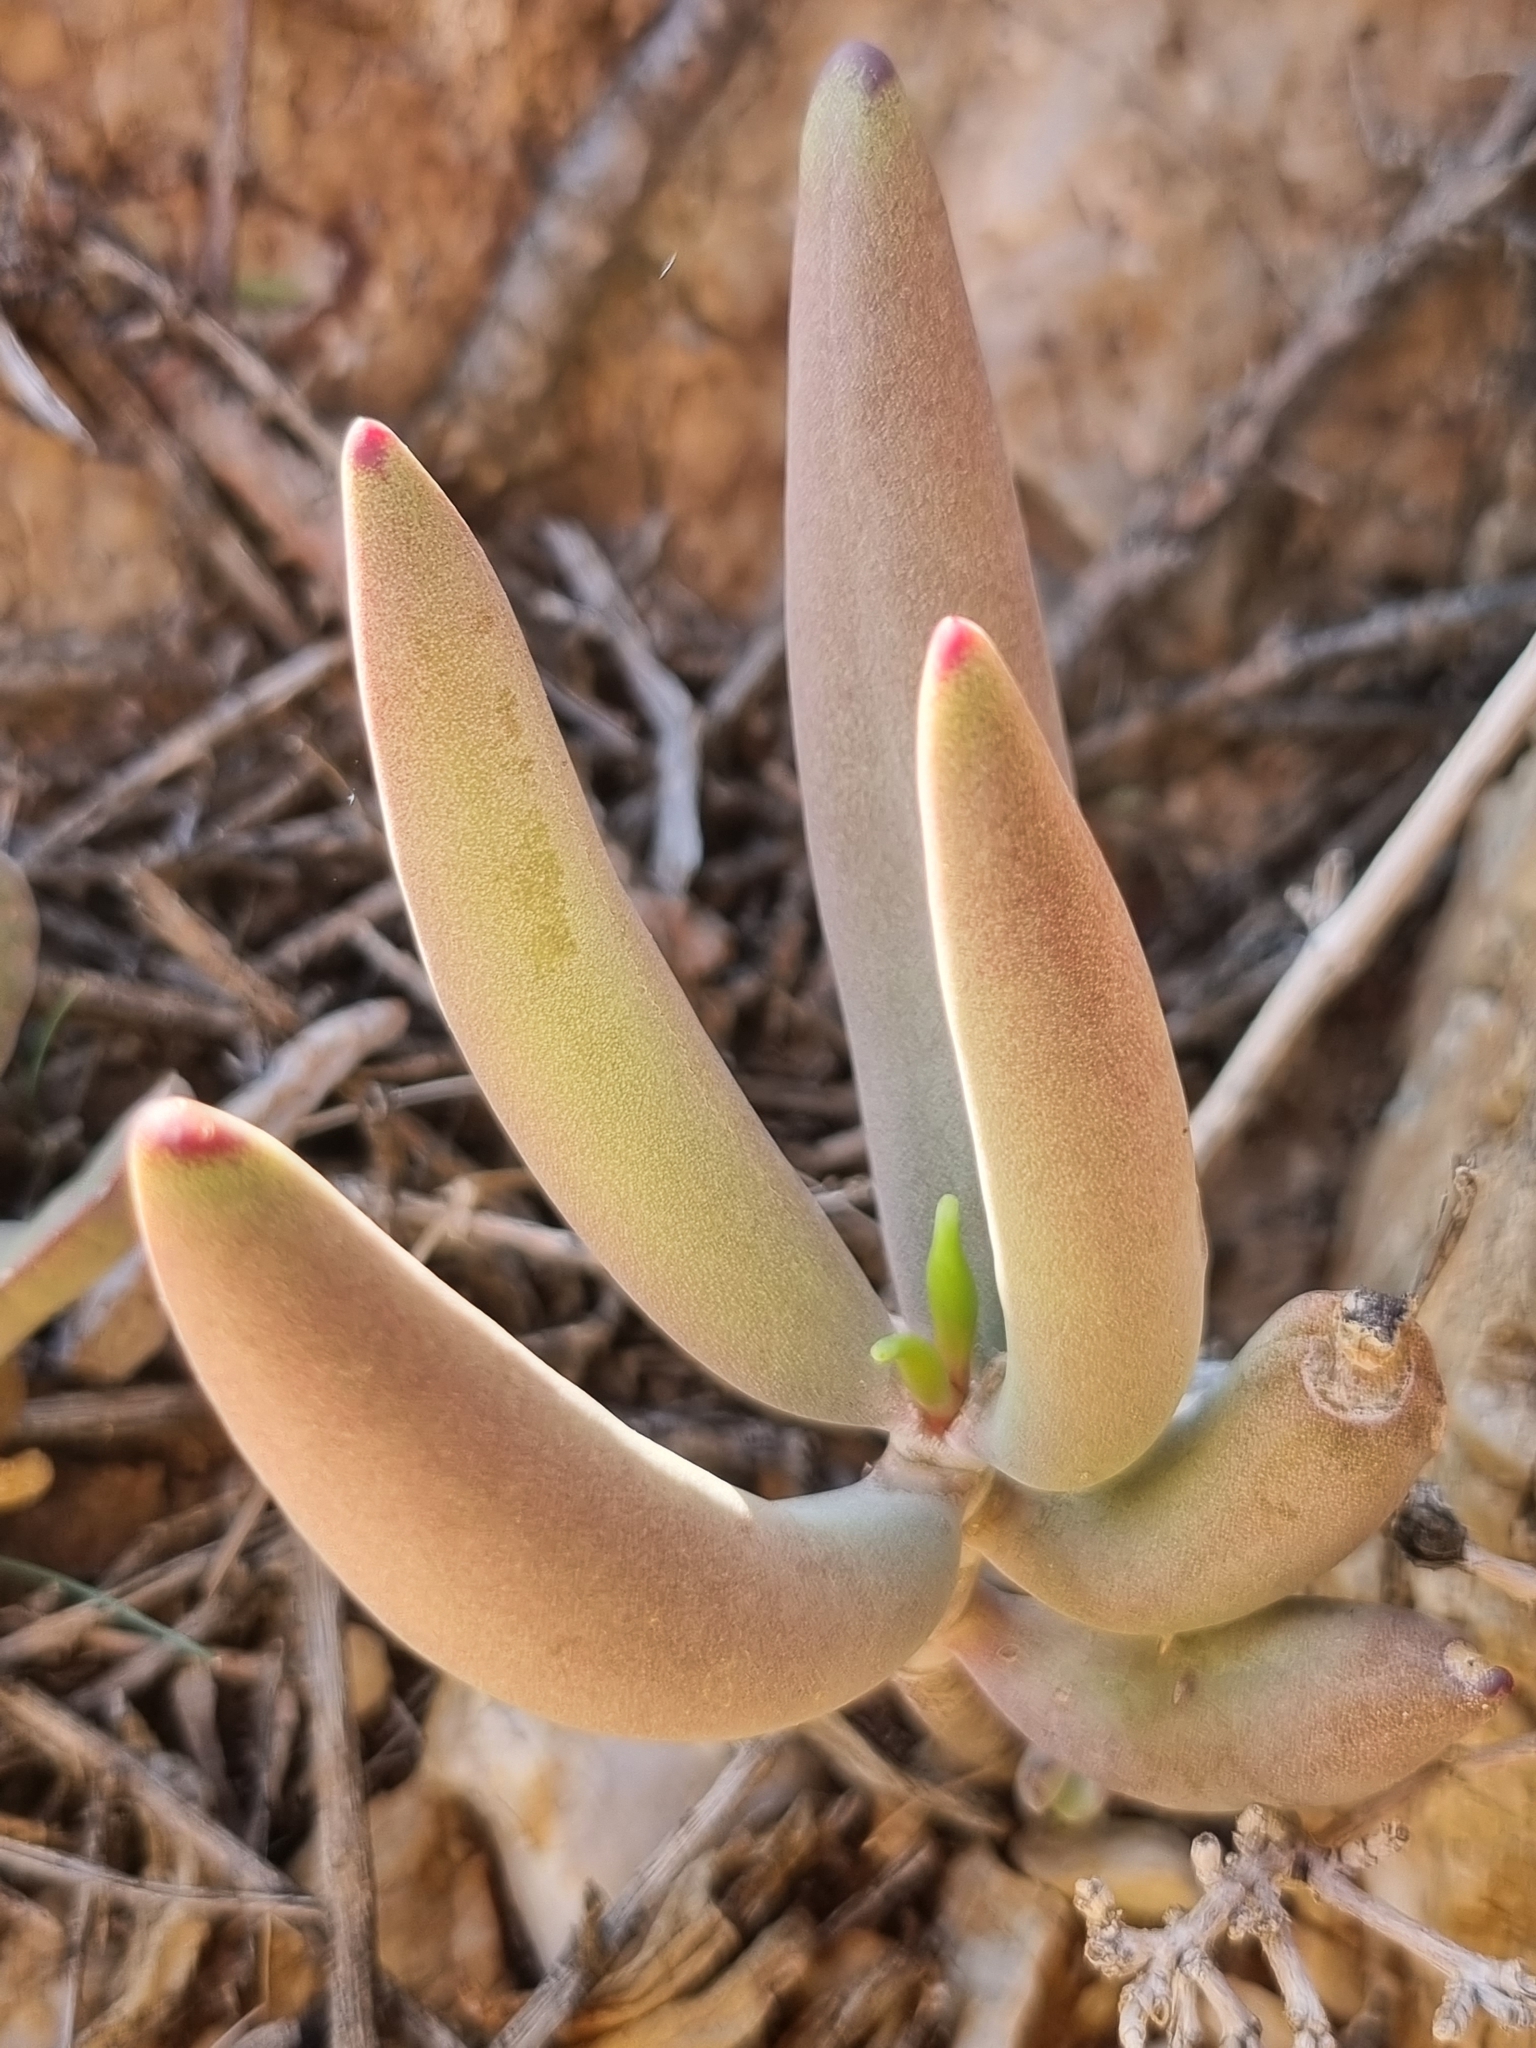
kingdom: Plantae
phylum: Tracheophyta
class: Magnoliopsida
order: Saxifragales
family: Crassulaceae
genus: Crassula
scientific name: Crassula garibina
